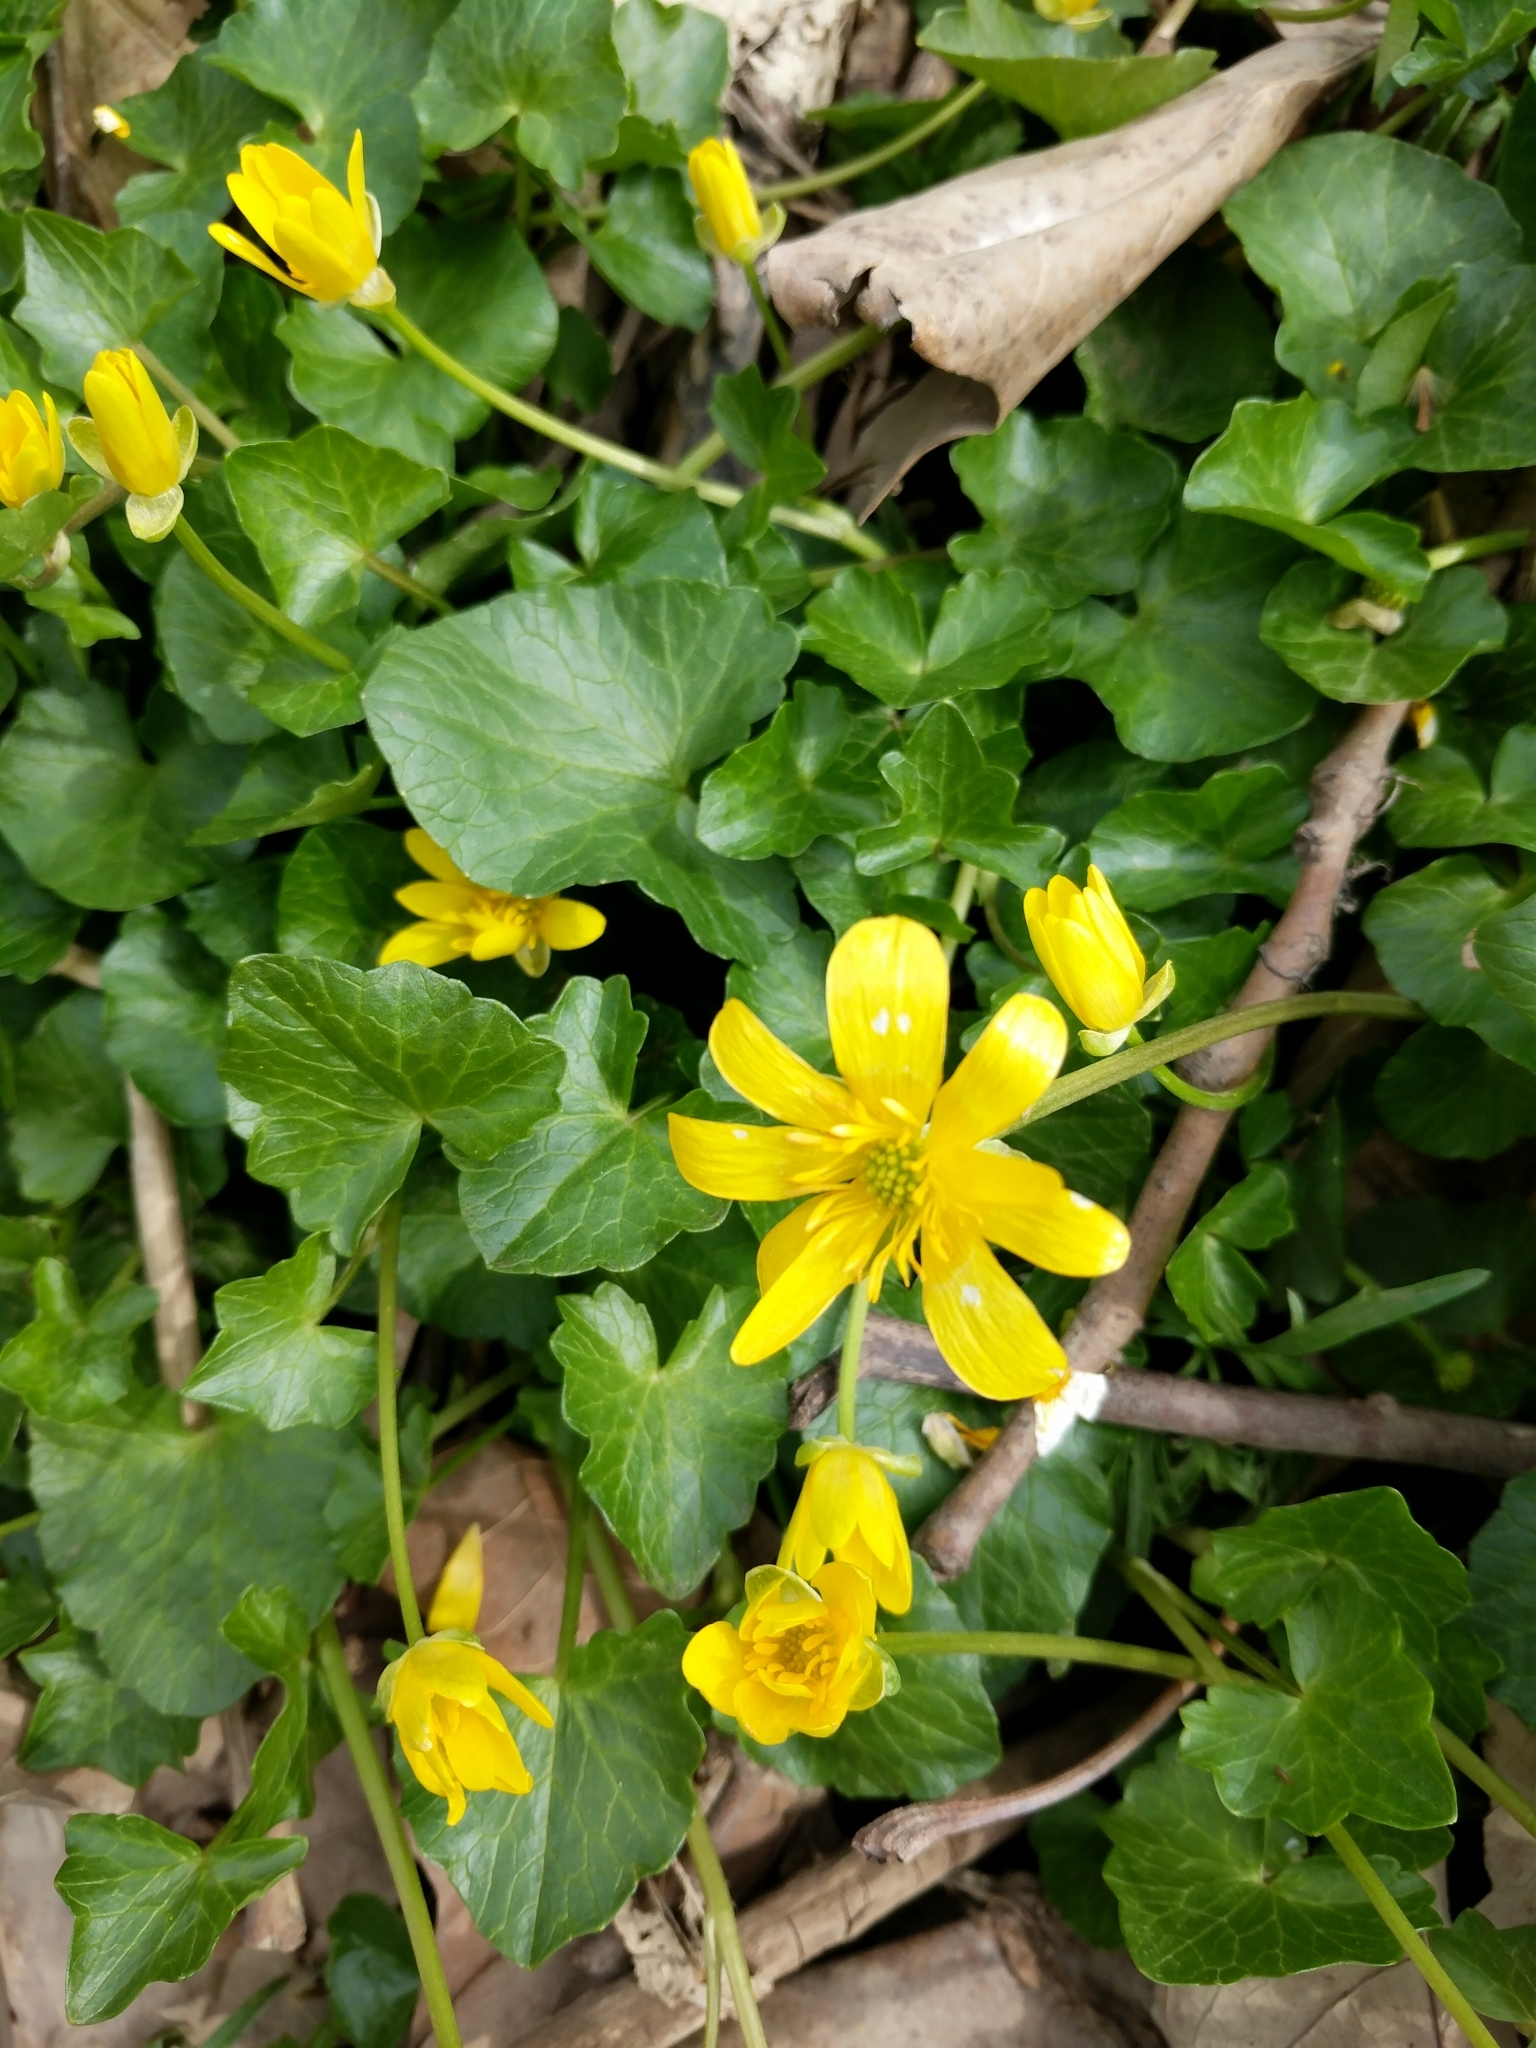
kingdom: Plantae
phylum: Tracheophyta
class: Magnoliopsida
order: Ranunculales
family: Ranunculaceae
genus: Ficaria
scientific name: Ficaria verna
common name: Lesser celandine
